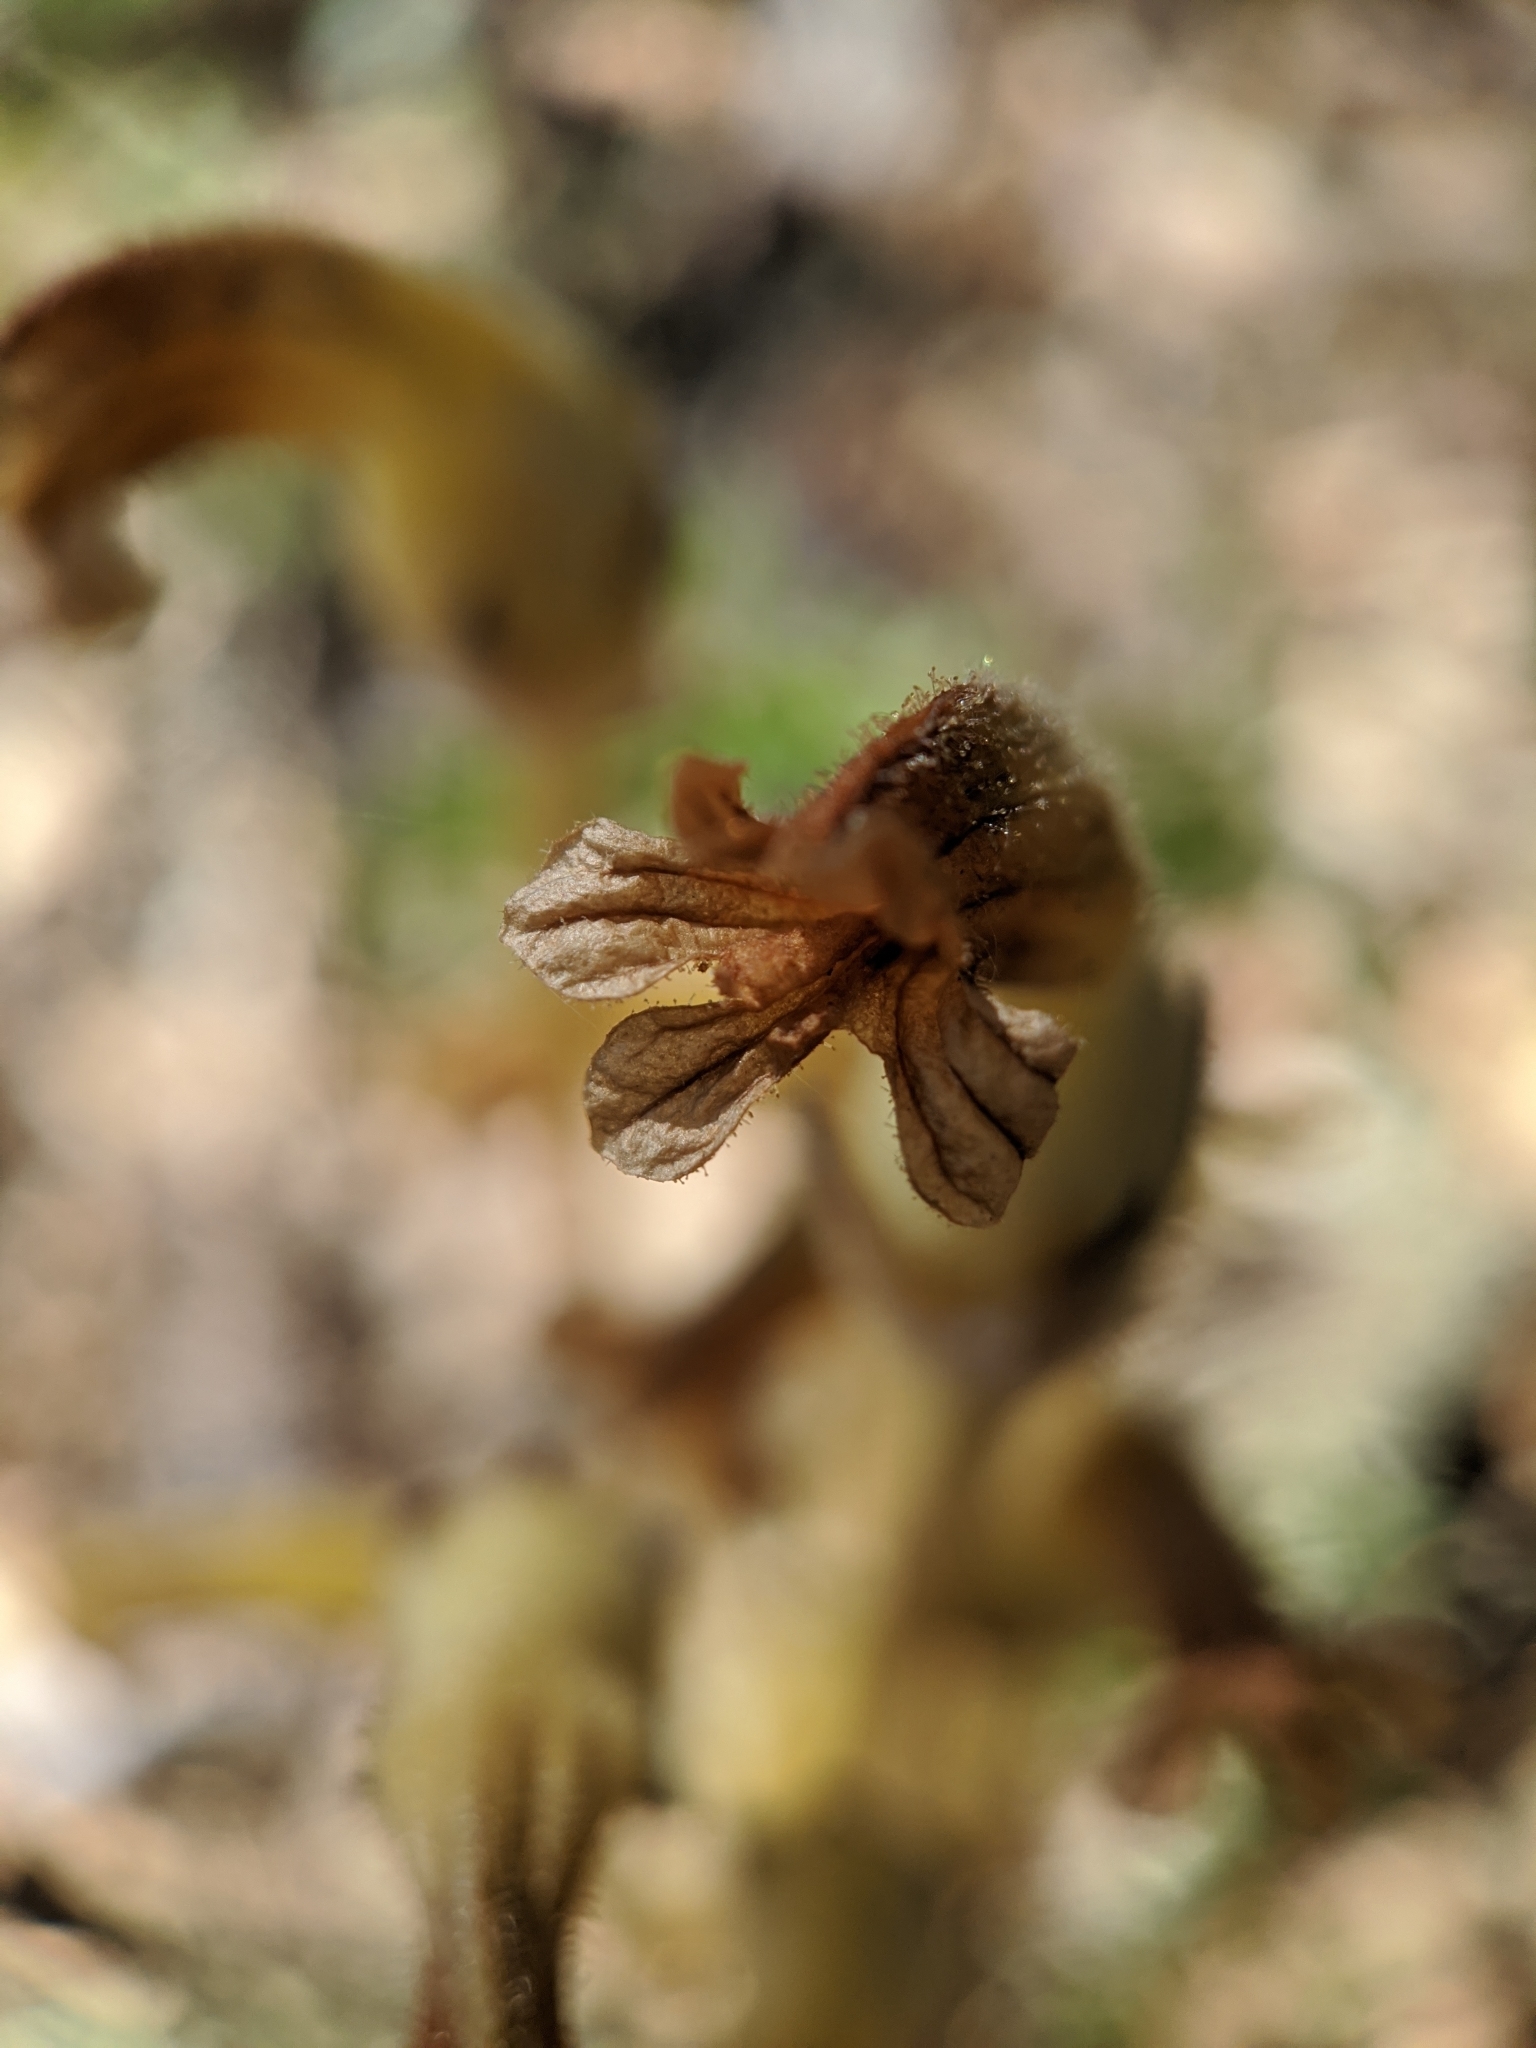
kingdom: Plantae
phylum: Tracheophyta
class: Magnoliopsida
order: Lamiales
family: Orobanchaceae
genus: Aphyllon
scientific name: Aphyllon franciscanum
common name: San francisco broomrape
